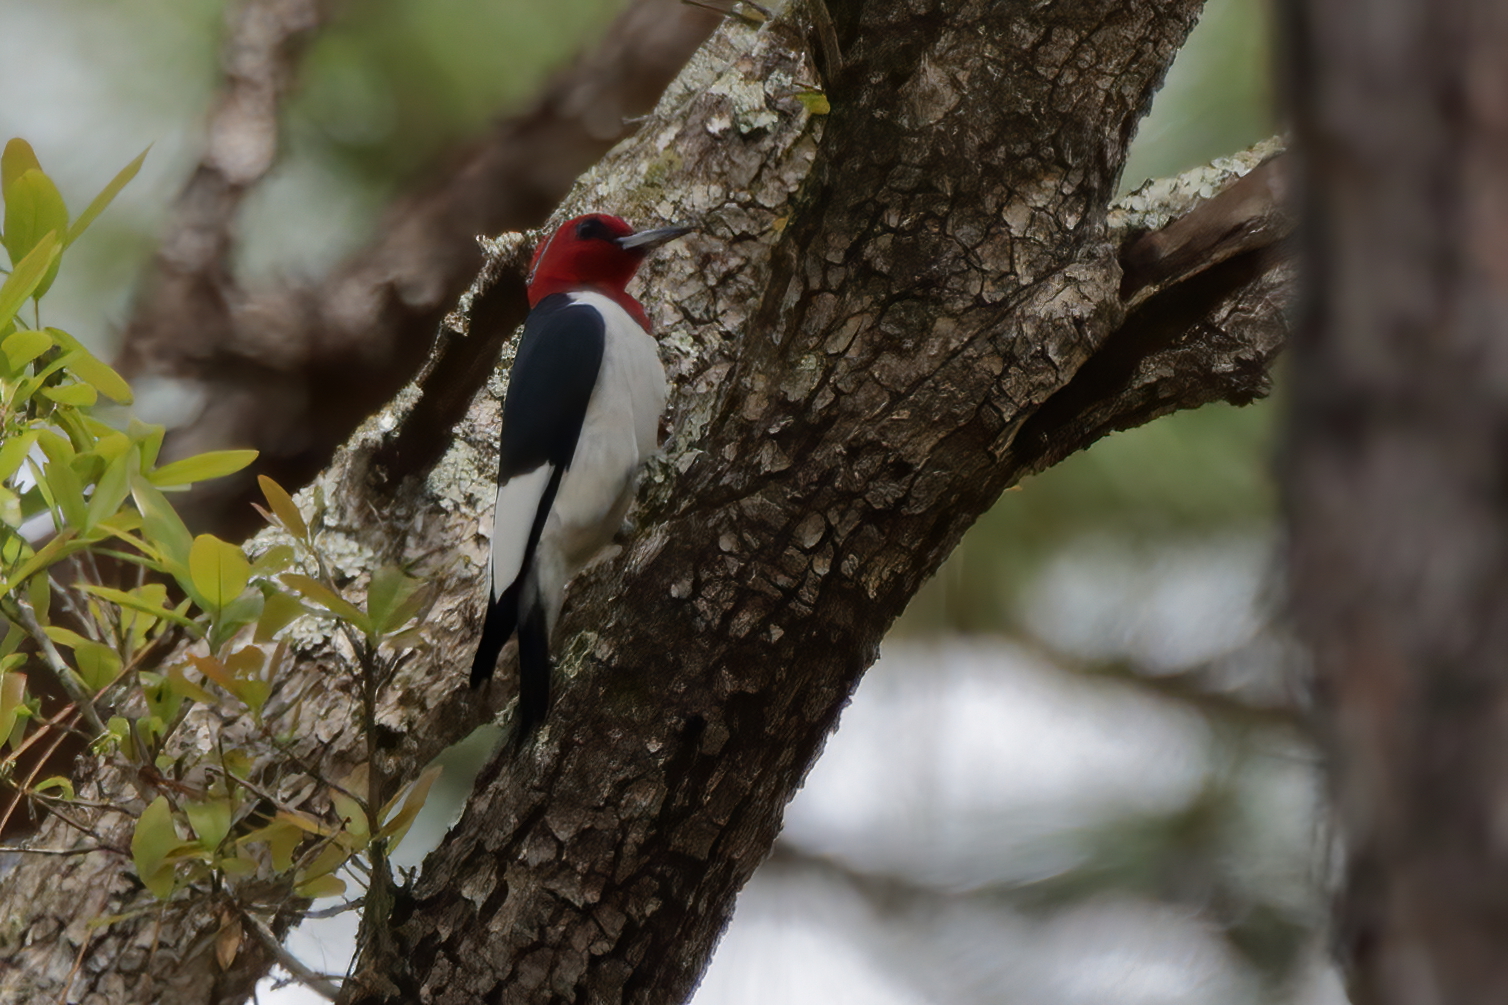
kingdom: Animalia
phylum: Chordata
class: Aves
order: Piciformes
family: Picidae
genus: Melanerpes
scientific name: Melanerpes erythrocephalus
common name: Red-headed woodpecker
